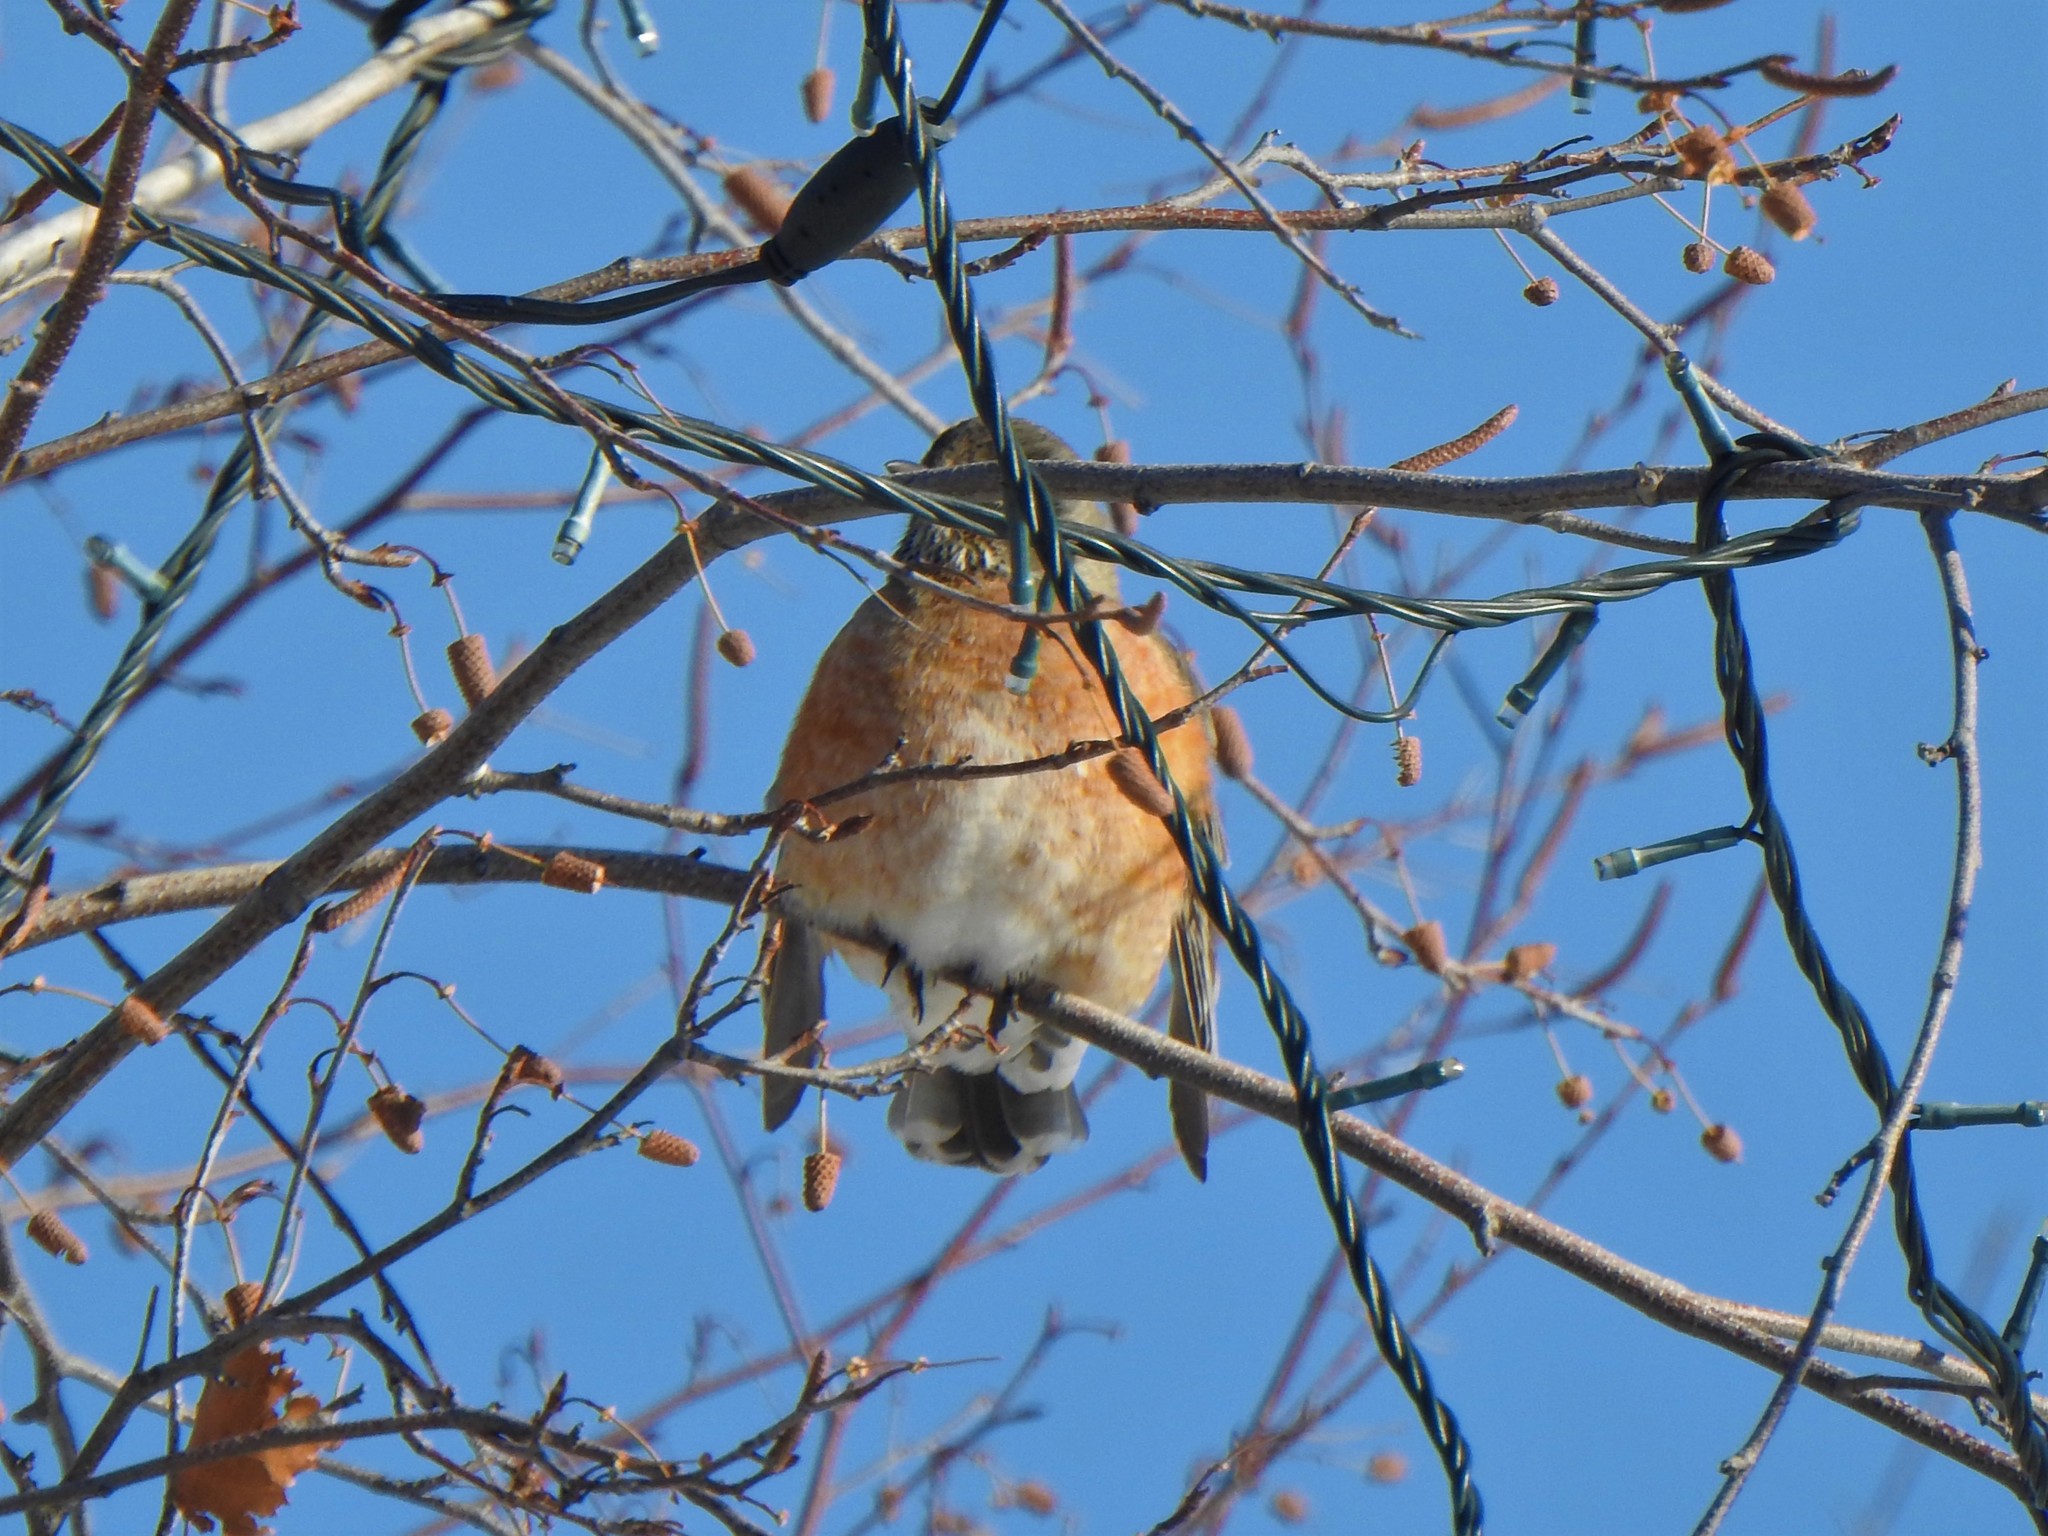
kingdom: Animalia
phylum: Chordata
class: Aves
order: Passeriformes
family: Turdidae
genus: Turdus
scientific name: Turdus migratorius
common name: American robin
